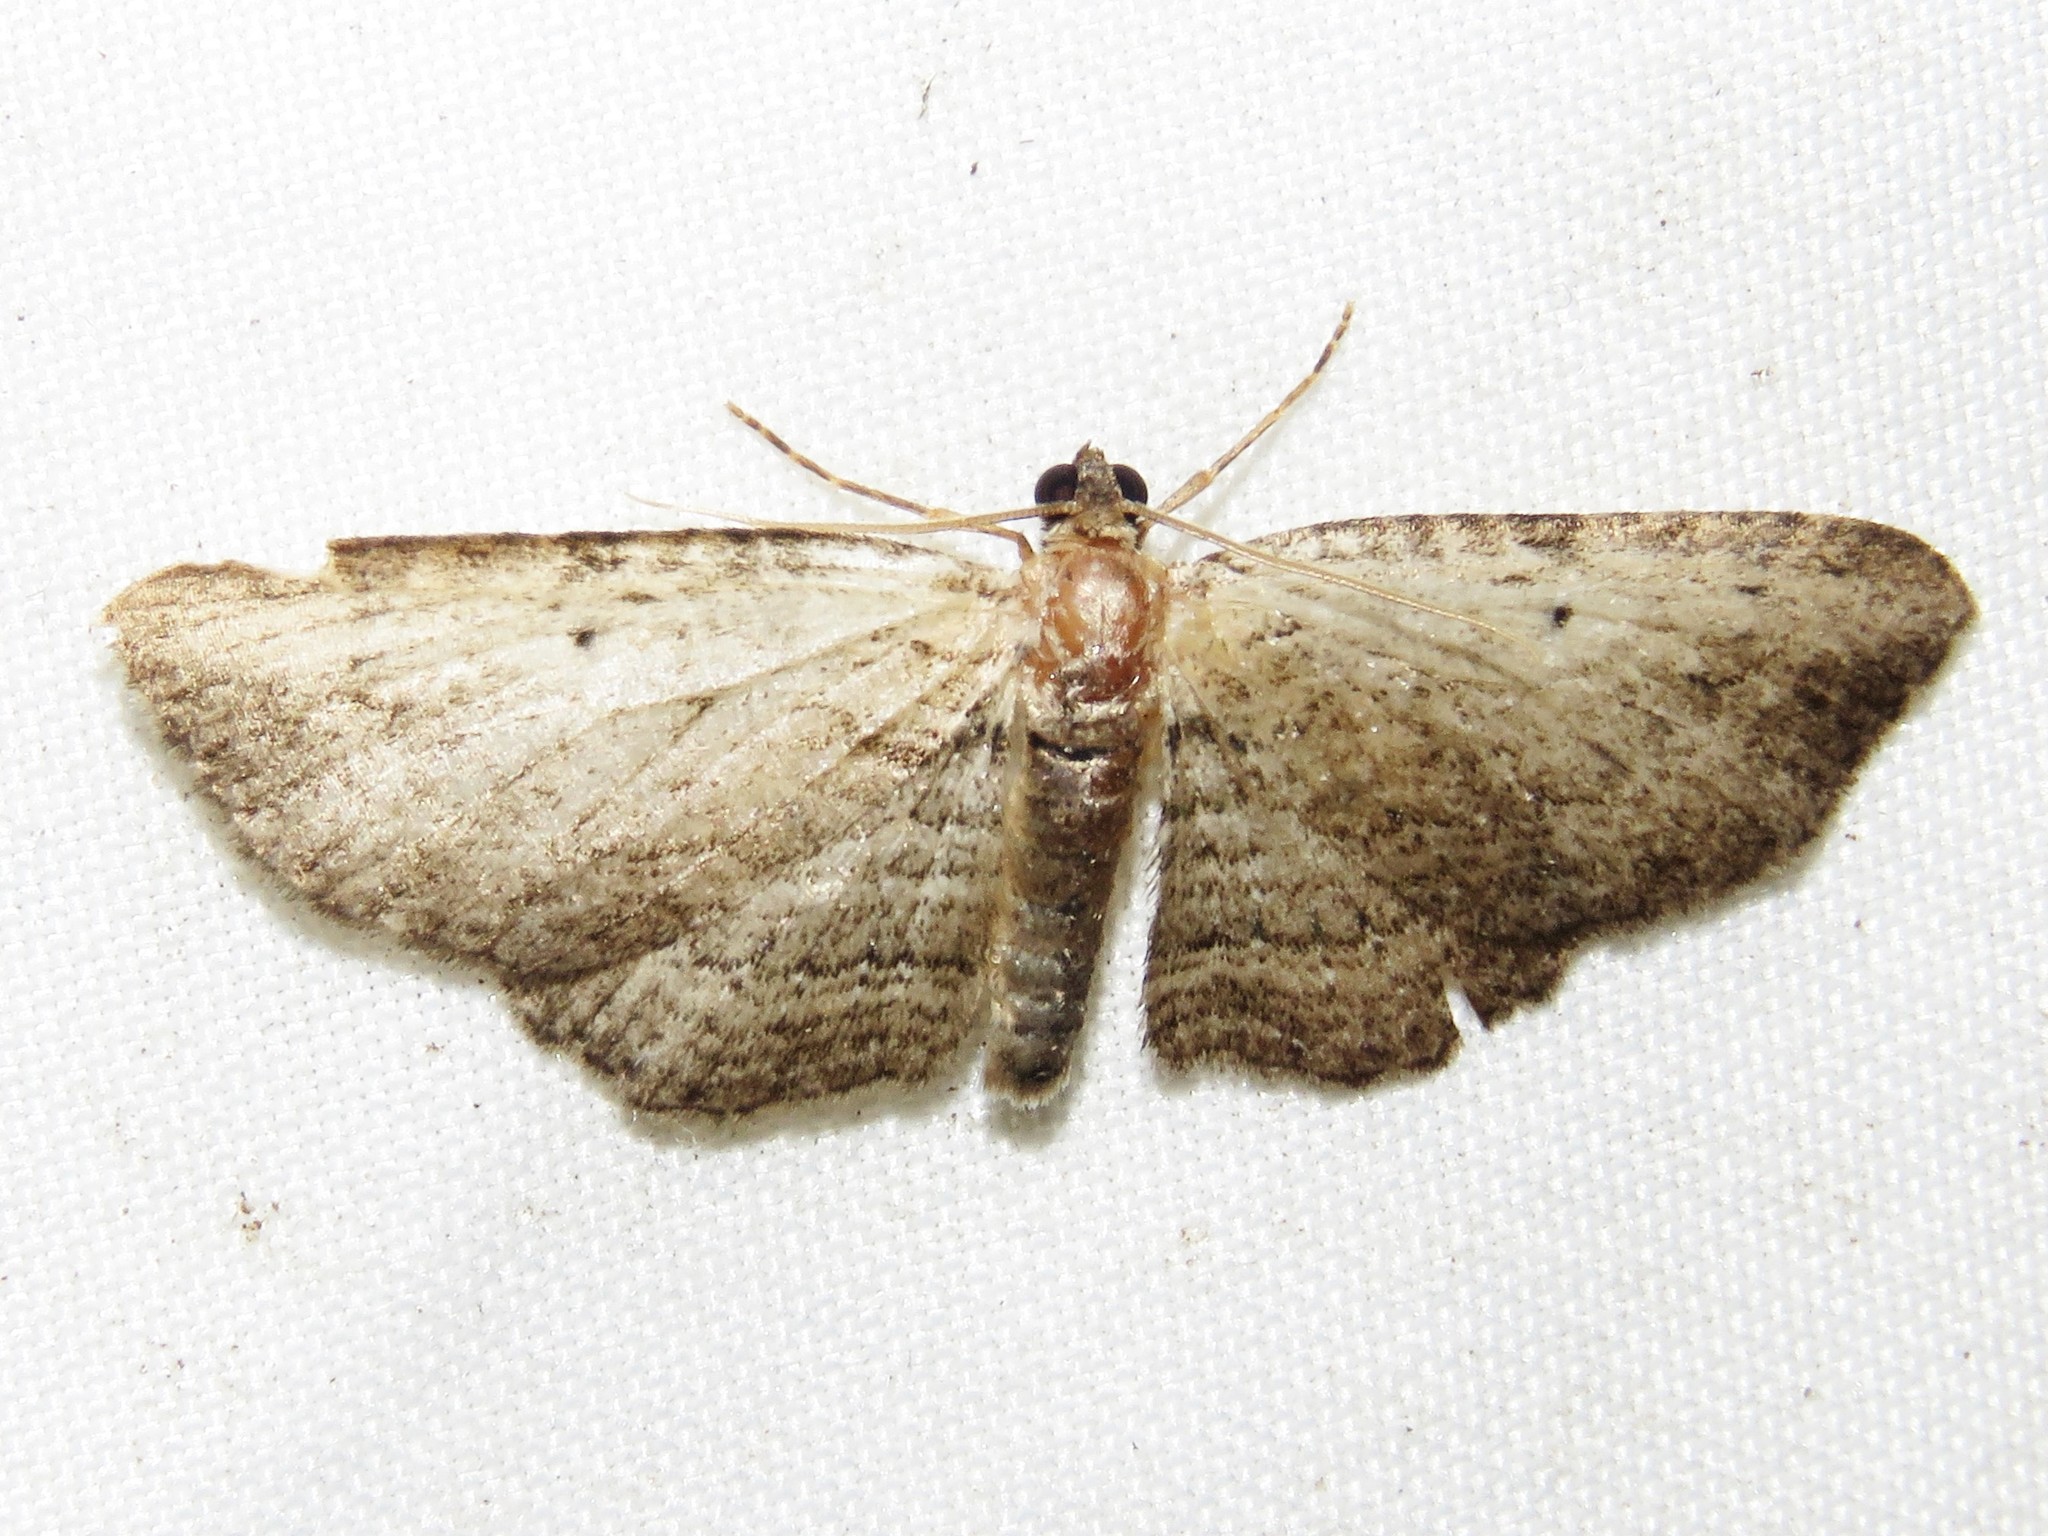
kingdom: Animalia
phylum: Arthropoda
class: Insecta
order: Lepidoptera
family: Geometridae
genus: Horisme
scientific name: Horisme intestinata
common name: Brown bark carpet
